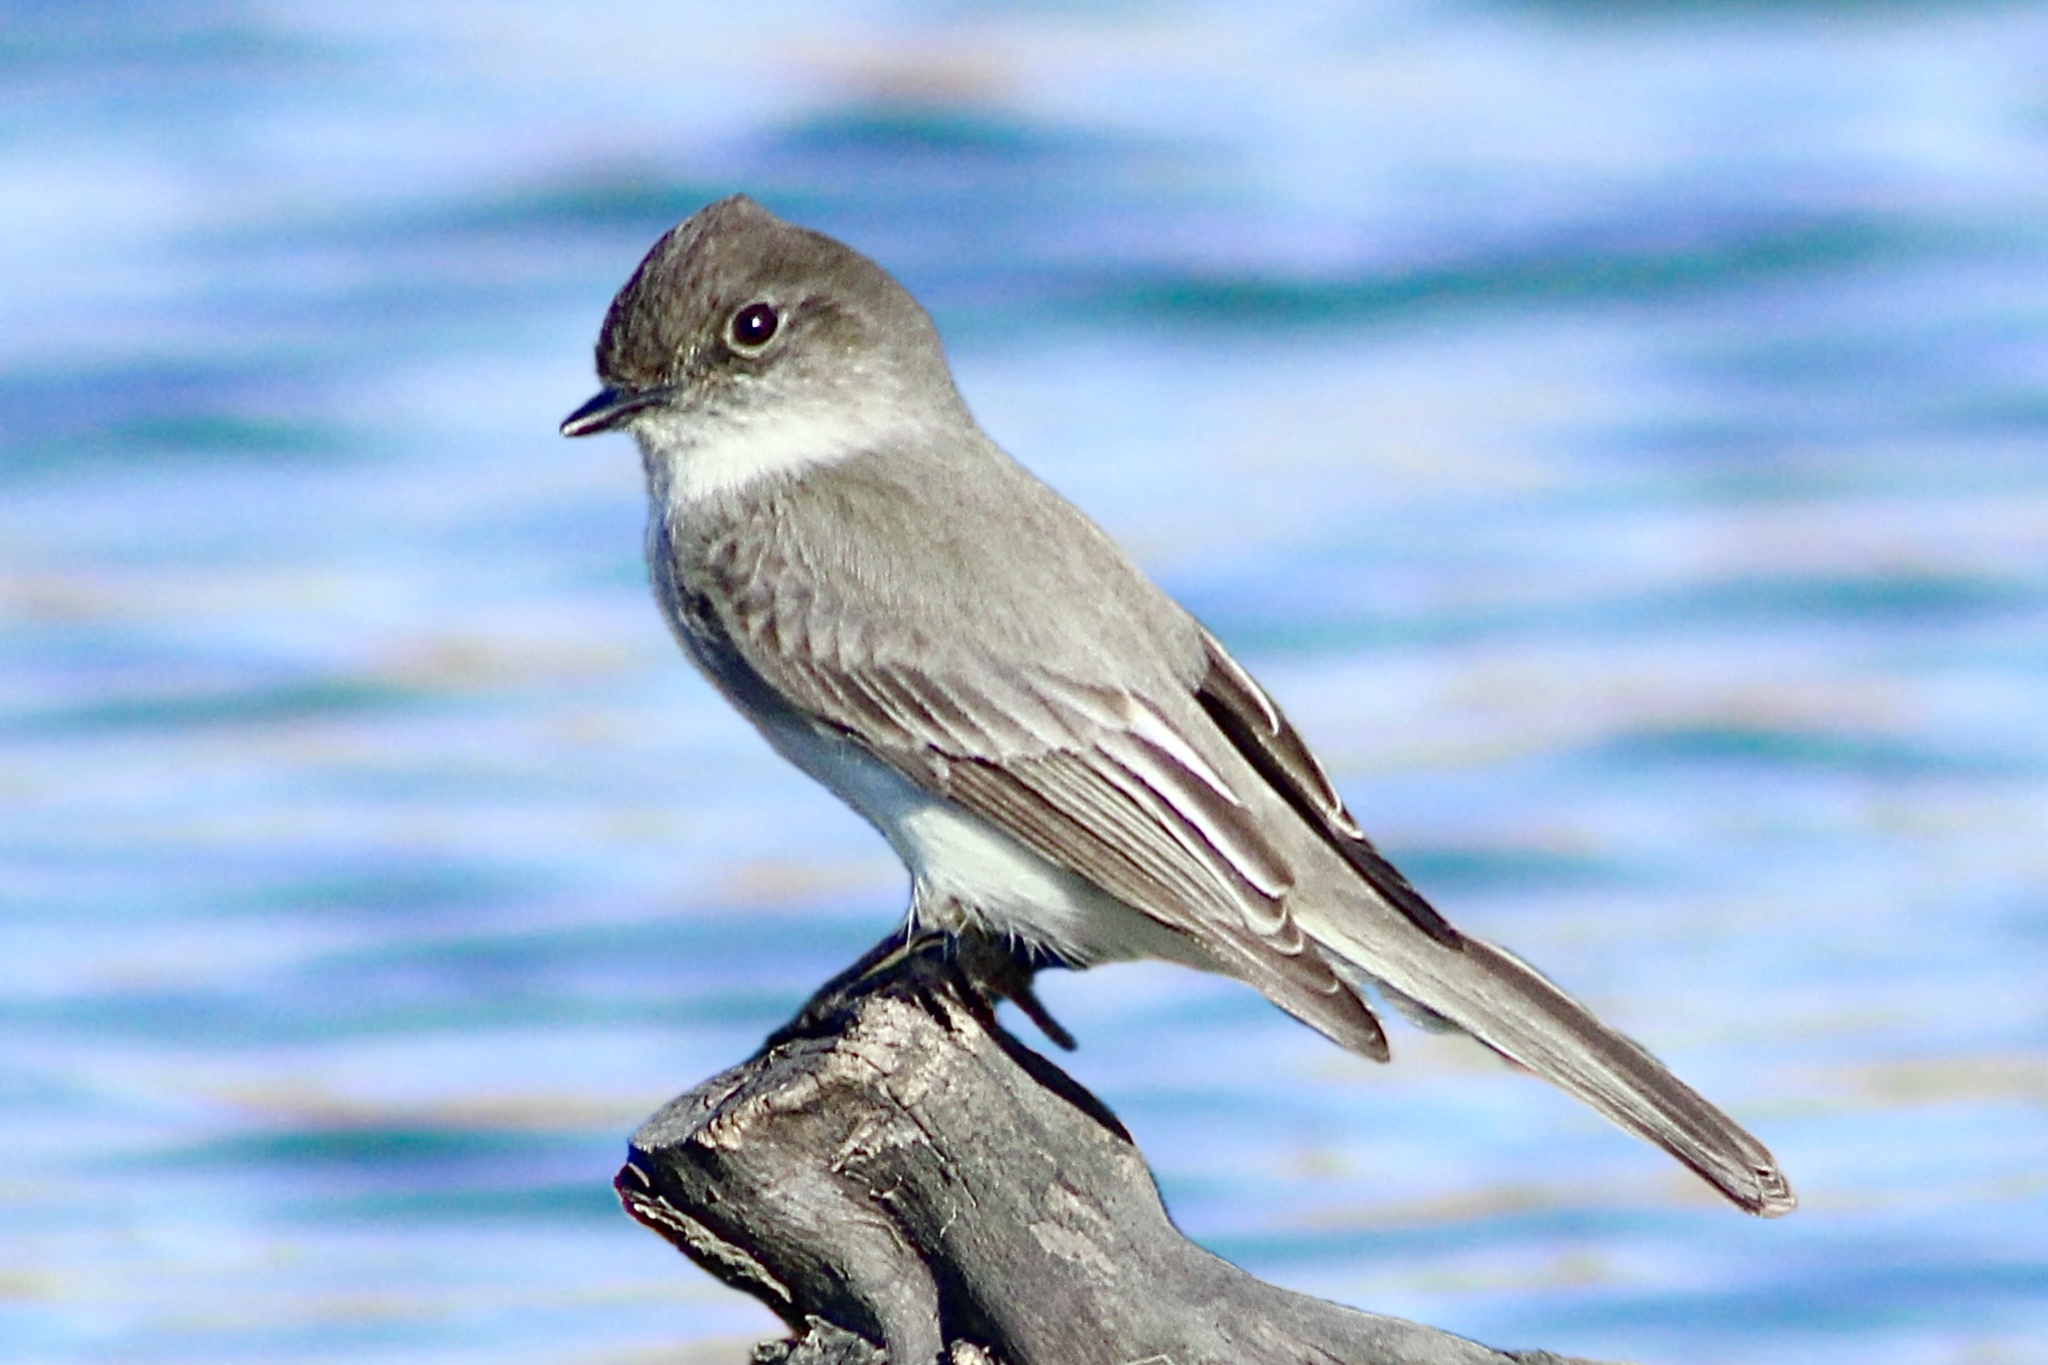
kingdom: Animalia
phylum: Chordata
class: Aves
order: Passeriformes
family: Tyrannidae
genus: Sayornis
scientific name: Sayornis phoebe
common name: Eastern phoebe
